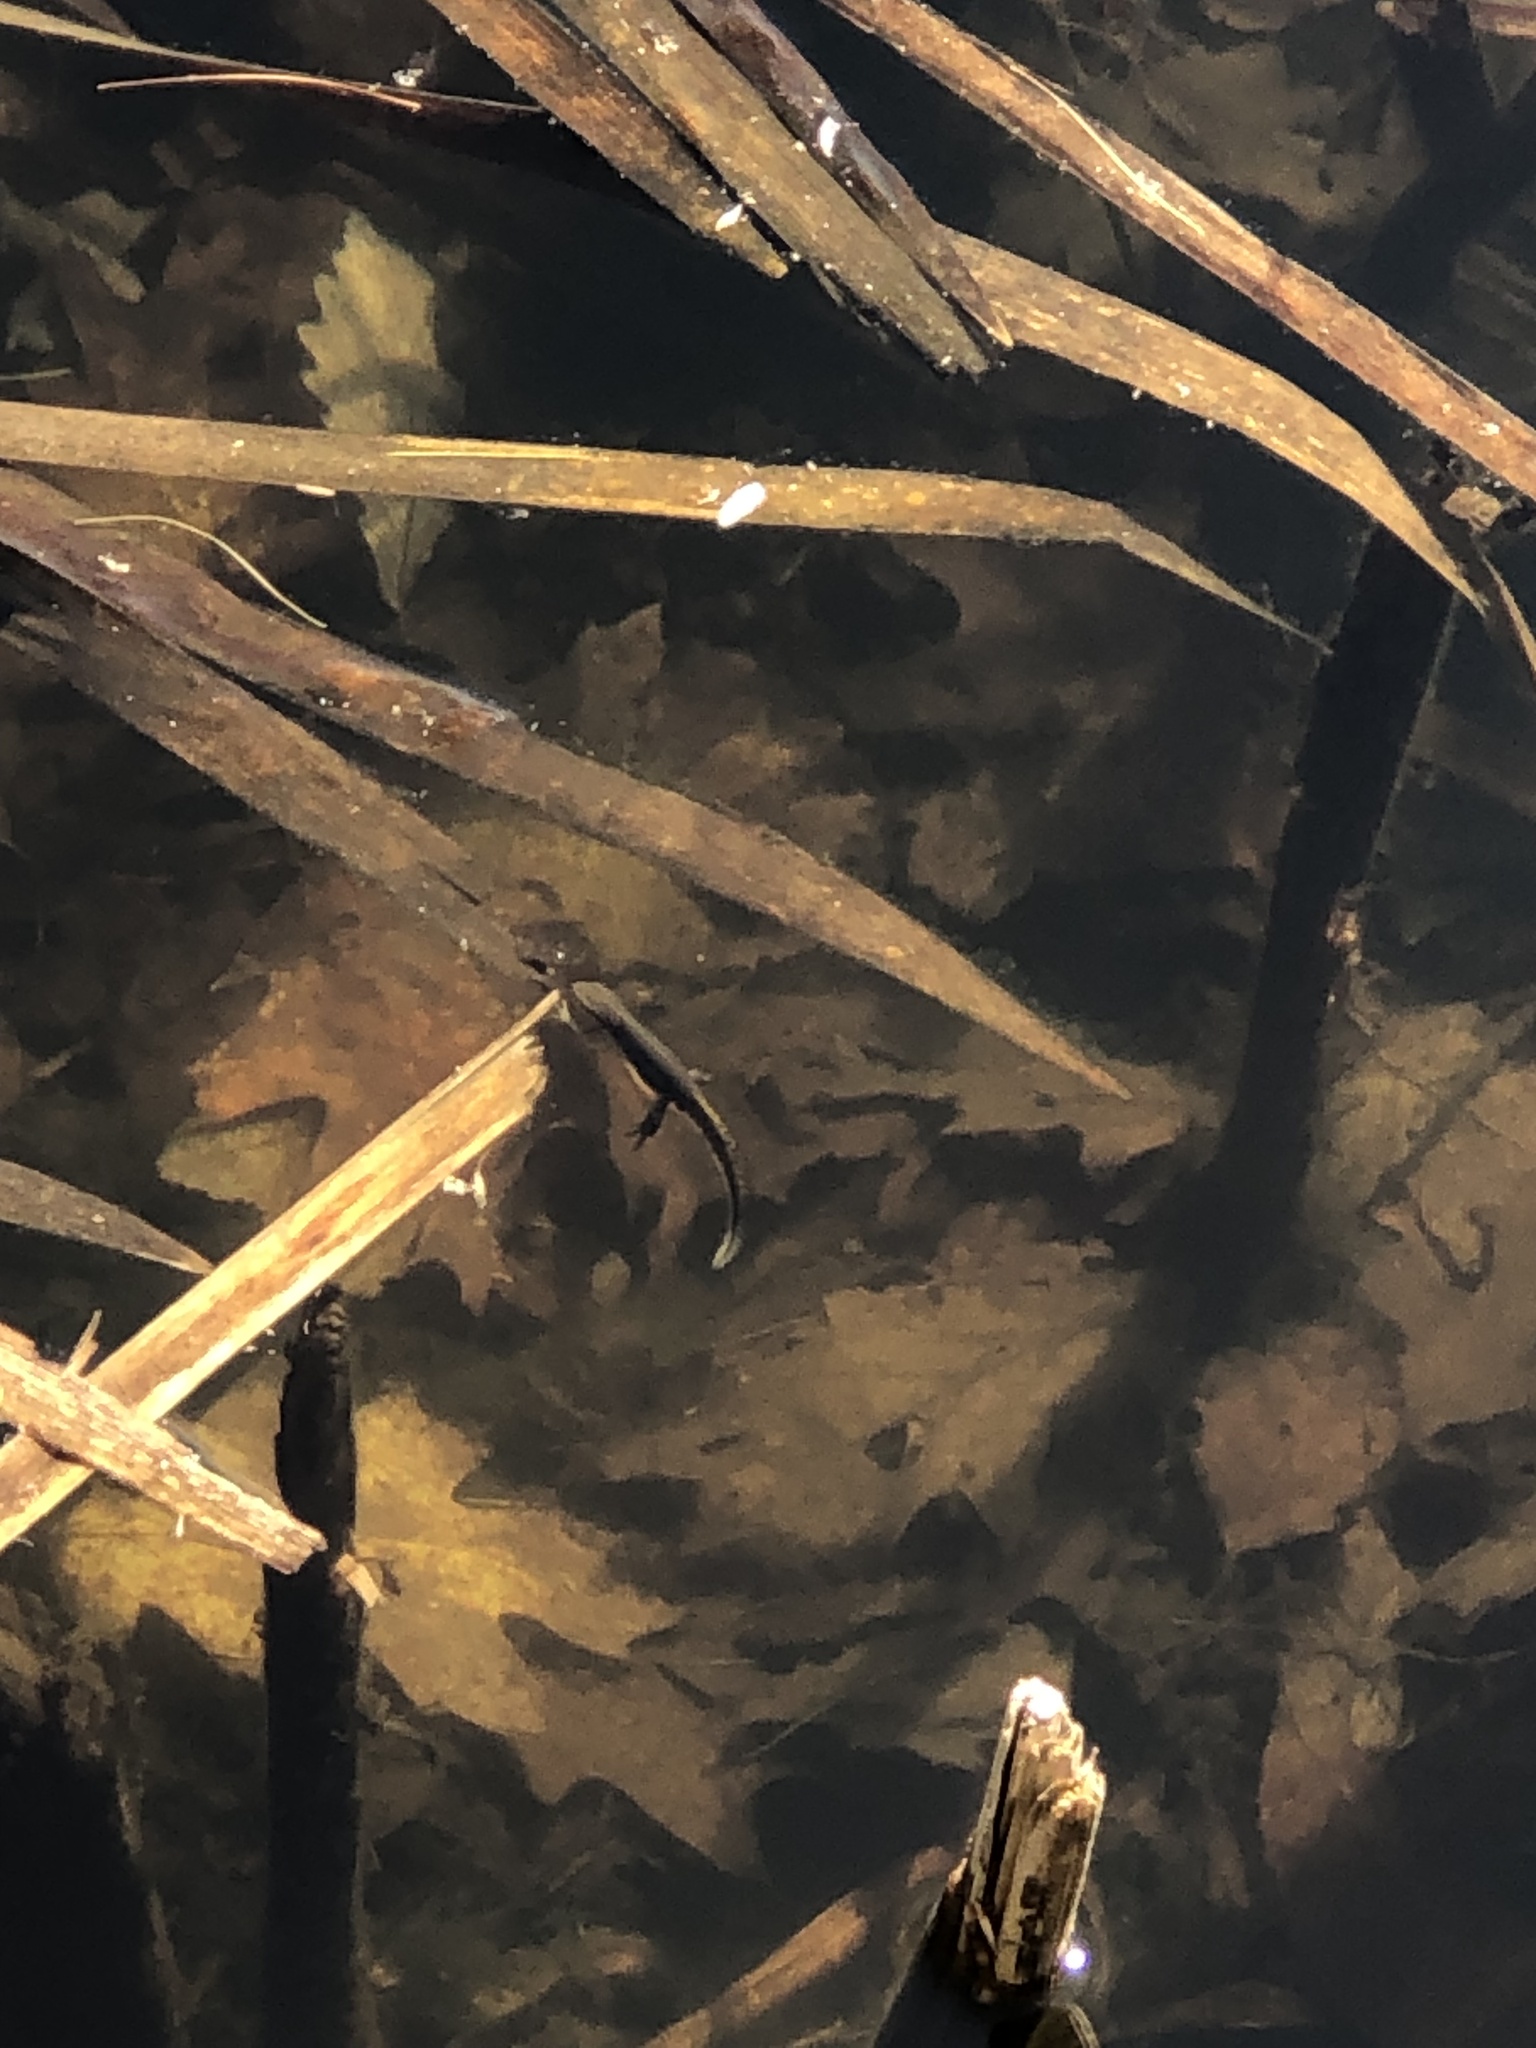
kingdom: Animalia
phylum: Chordata
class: Amphibia
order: Caudata
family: Salamandridae
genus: Notophthalmus
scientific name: Notophthalmus viridescens
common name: Eastern newt
